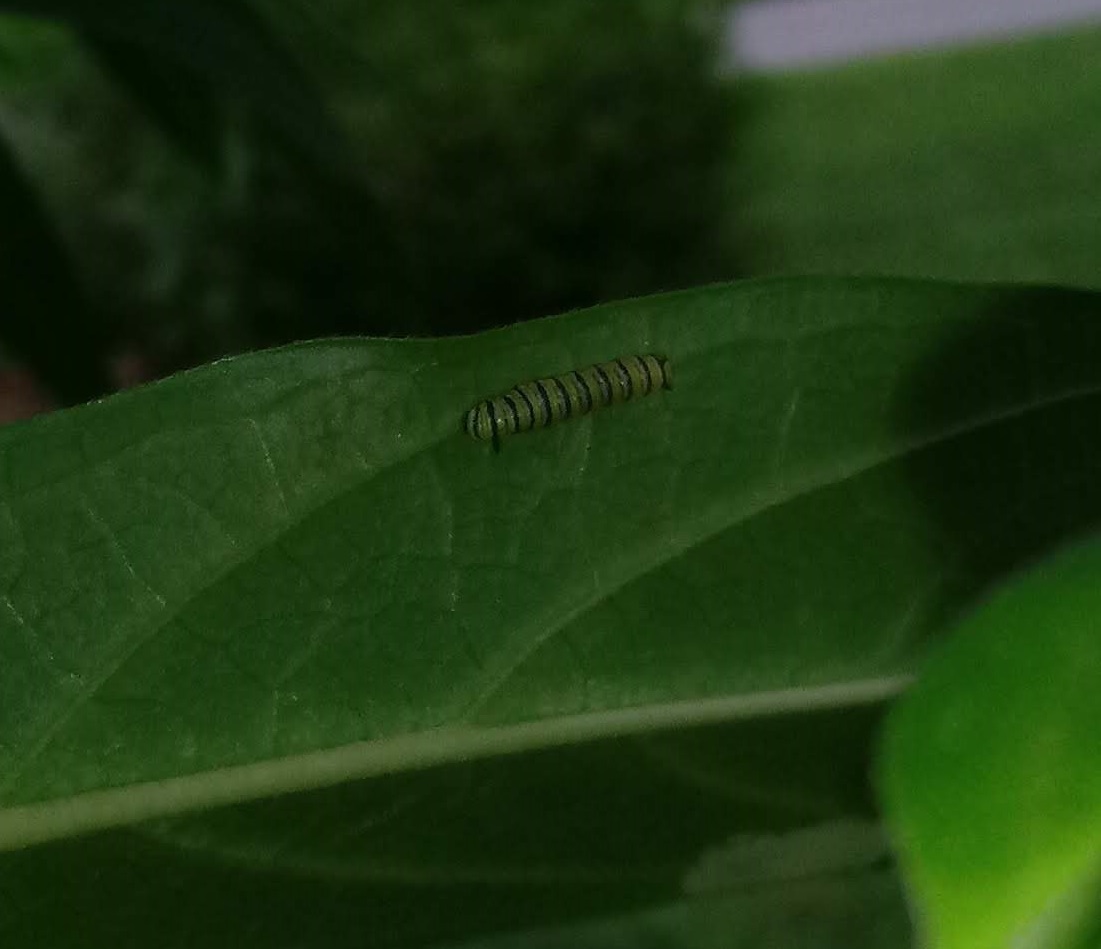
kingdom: Animalia
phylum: Arthropoda
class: Insecta
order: Lepidoptera
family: Nymphalidae
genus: Danaus
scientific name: Danaus plexippus
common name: Monarch
